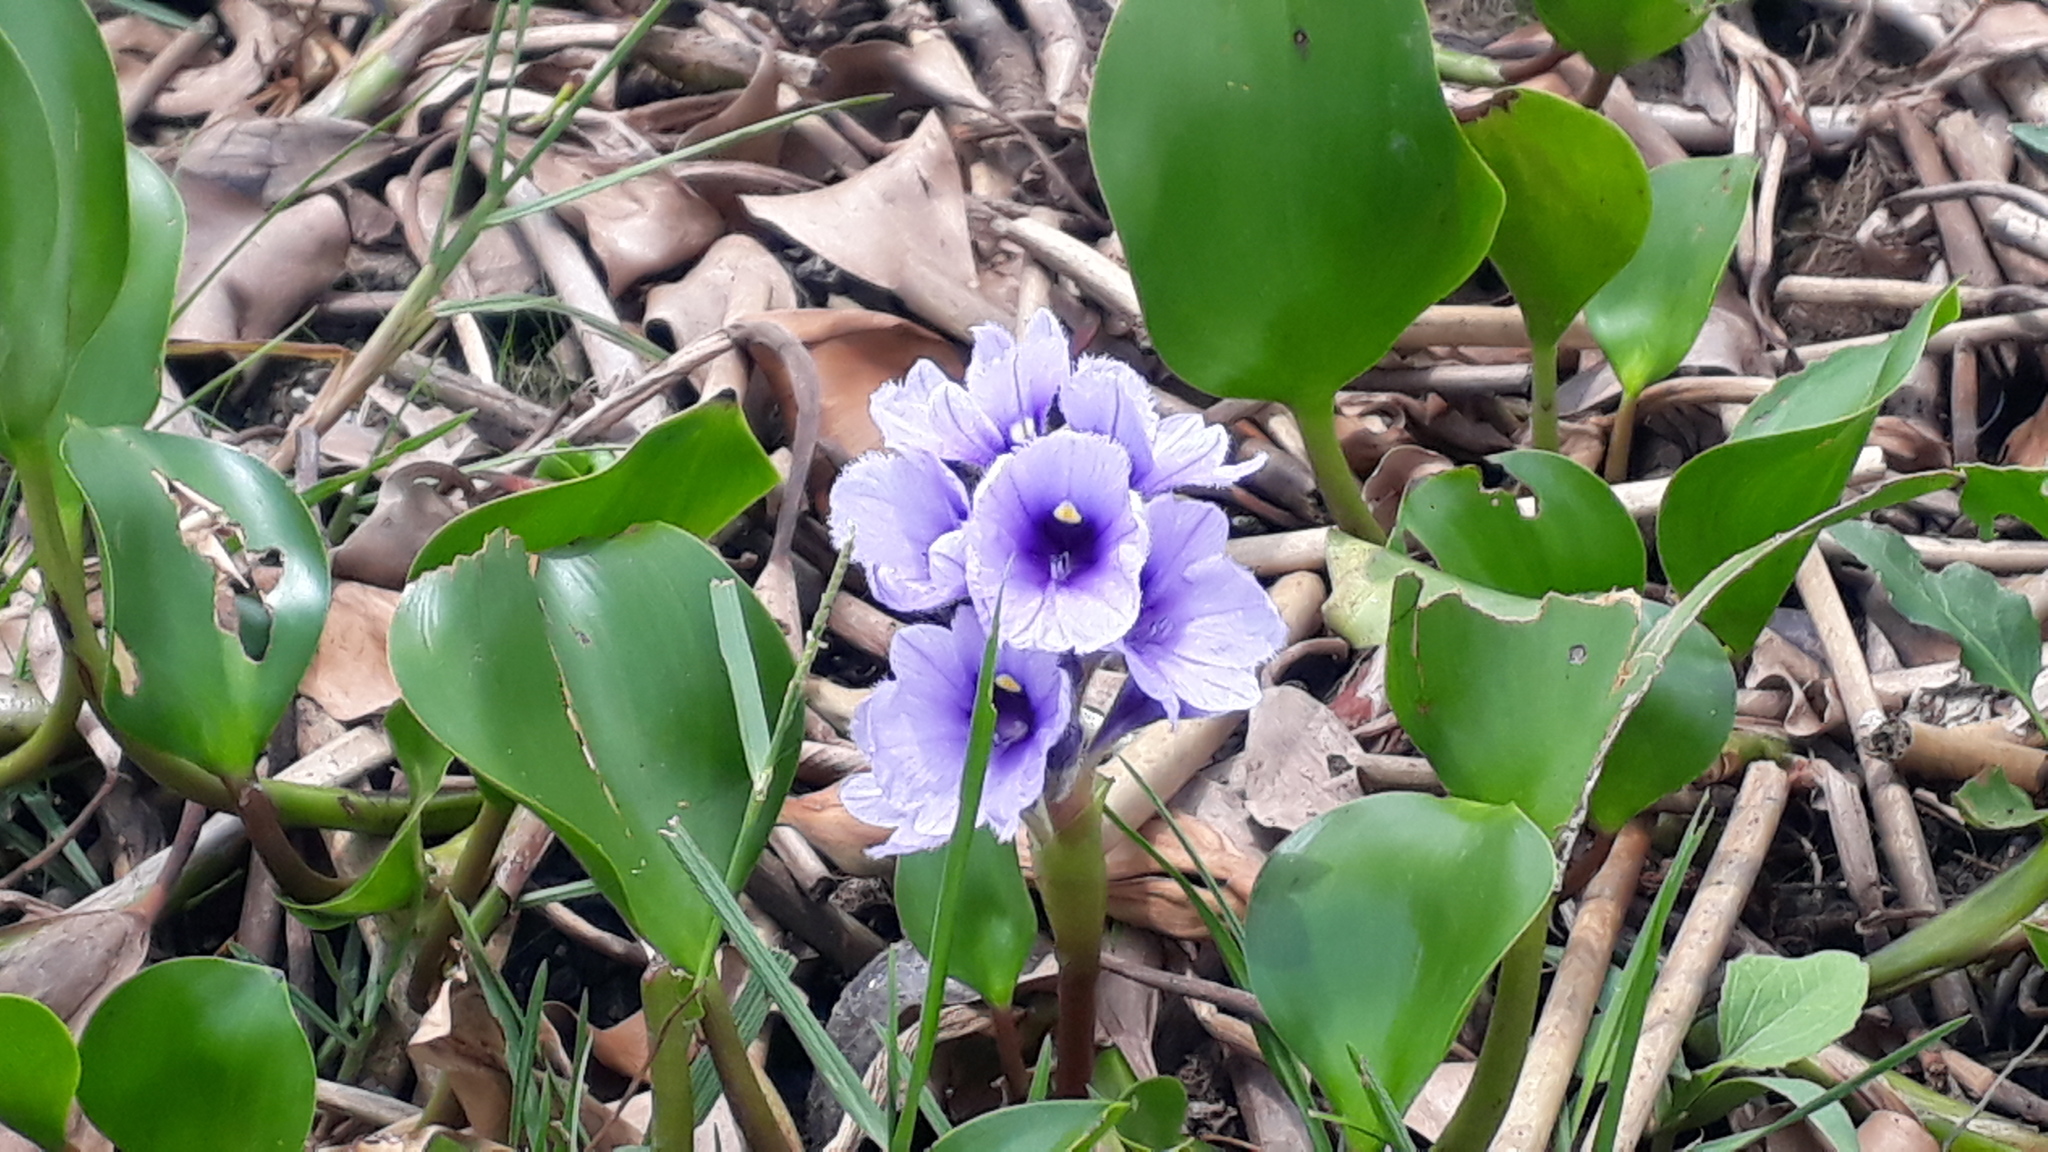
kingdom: Plantae
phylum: Tracheophyta
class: Liliopsida
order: Commelinales
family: Pontederiaceae
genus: Pontederia
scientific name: Pontederia azurea
